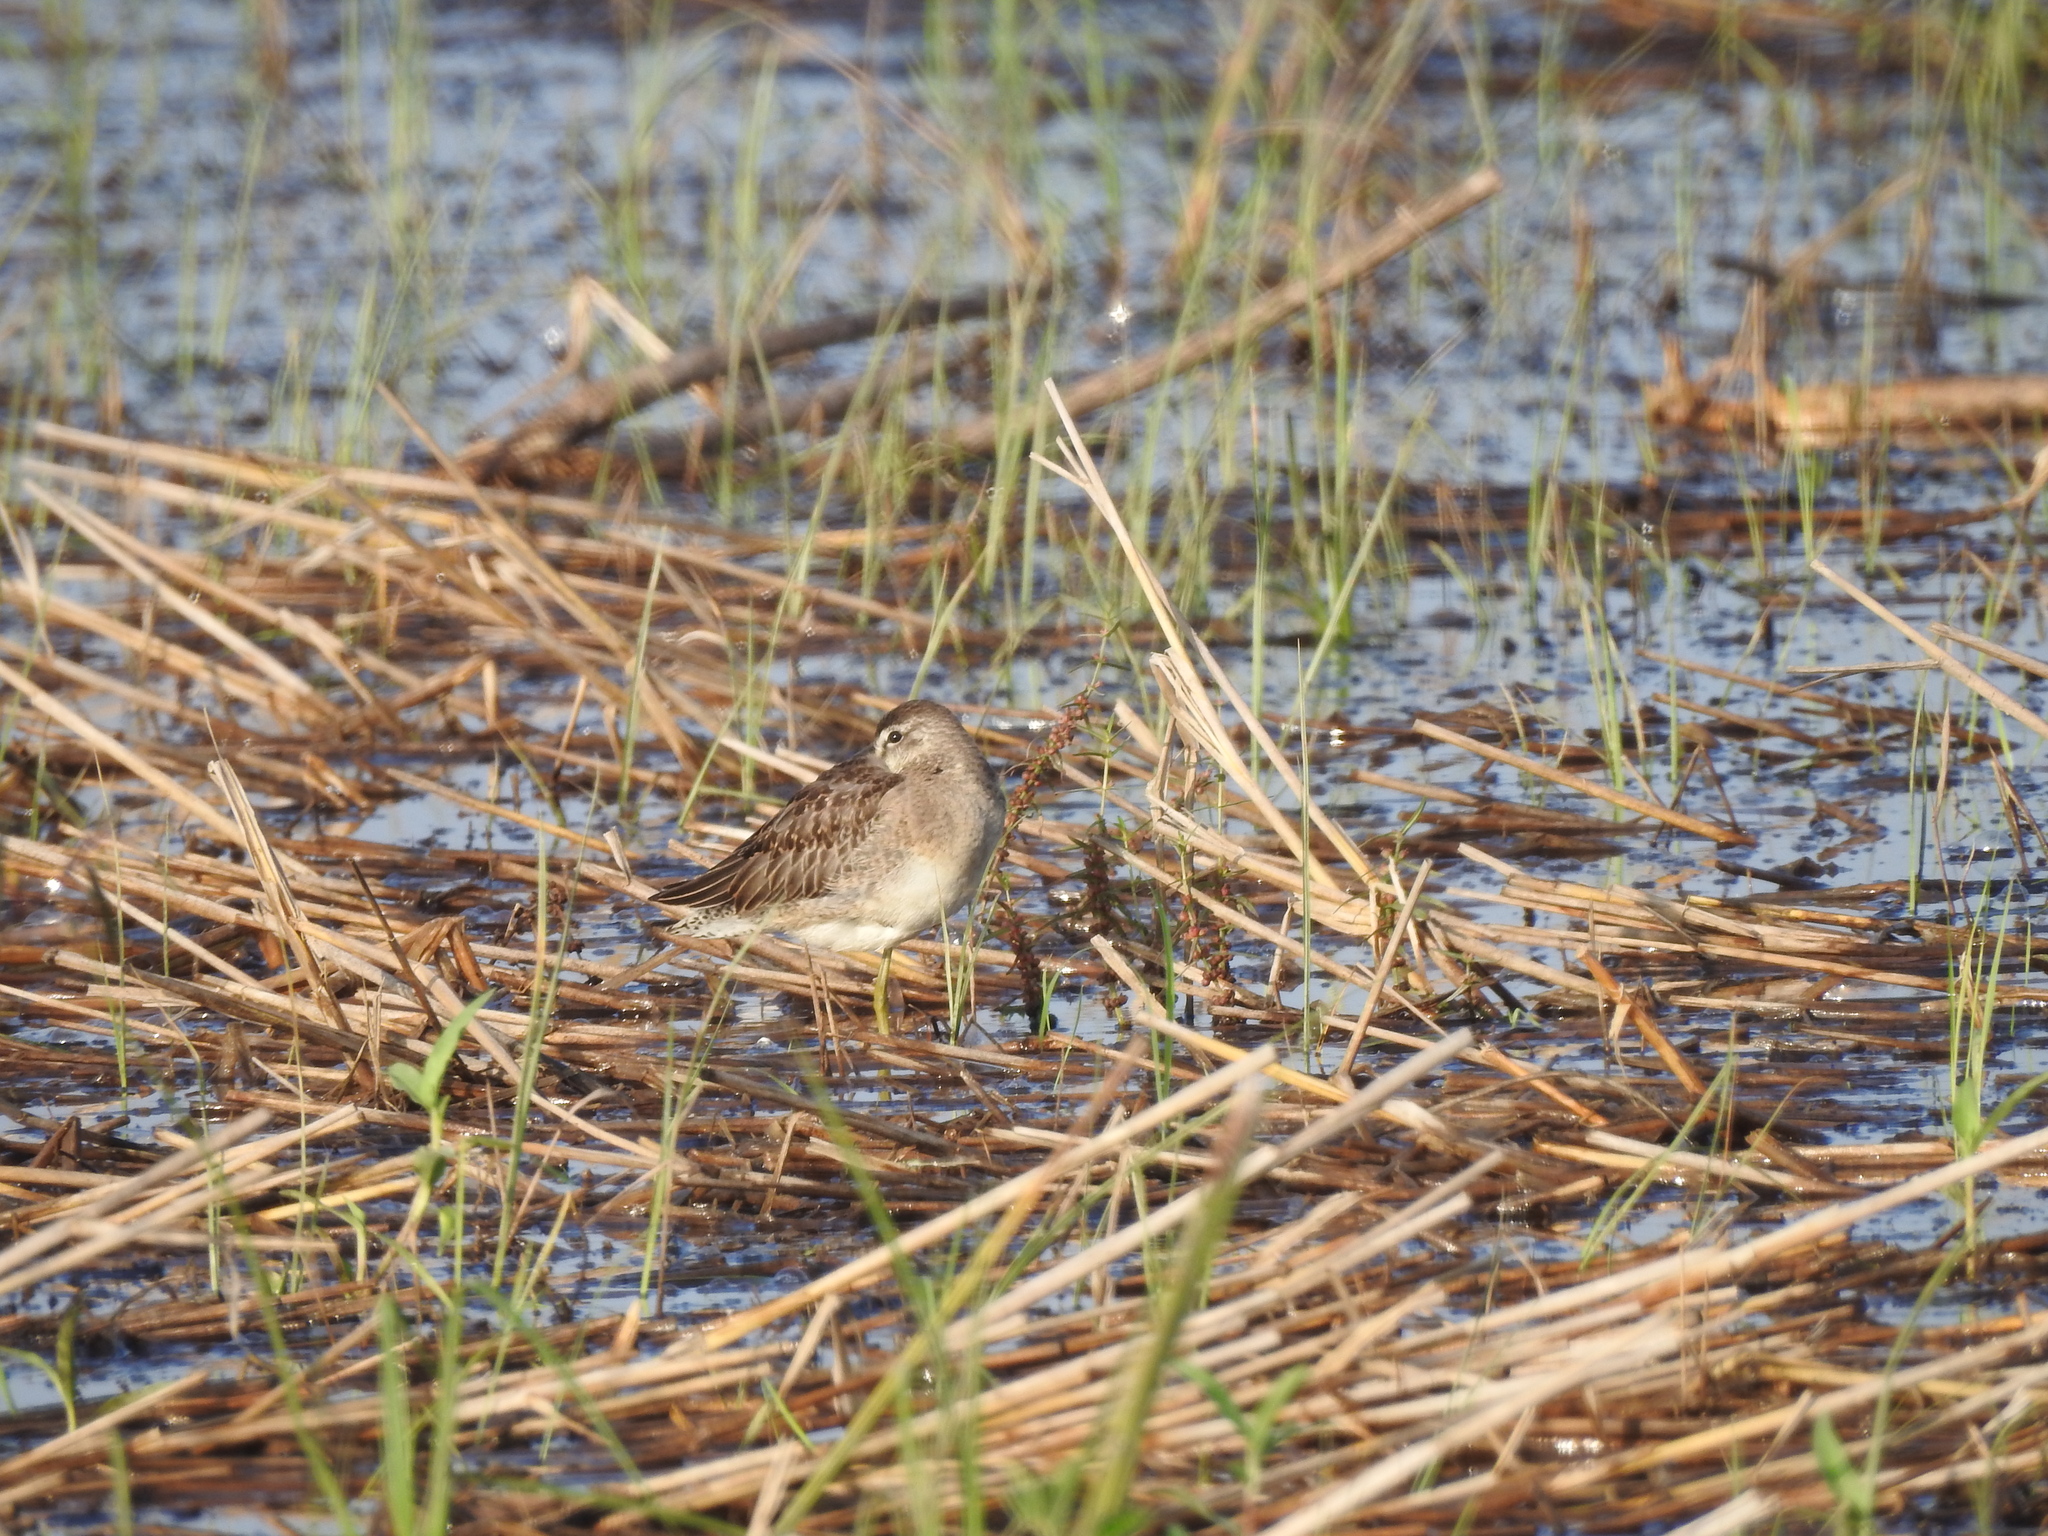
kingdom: Animalia
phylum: Chordata
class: Aves
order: Charadriiformes
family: Scolopacidae
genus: Limnodromus
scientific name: Limnodromus scolopaceus
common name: Long-billed dowitcher
